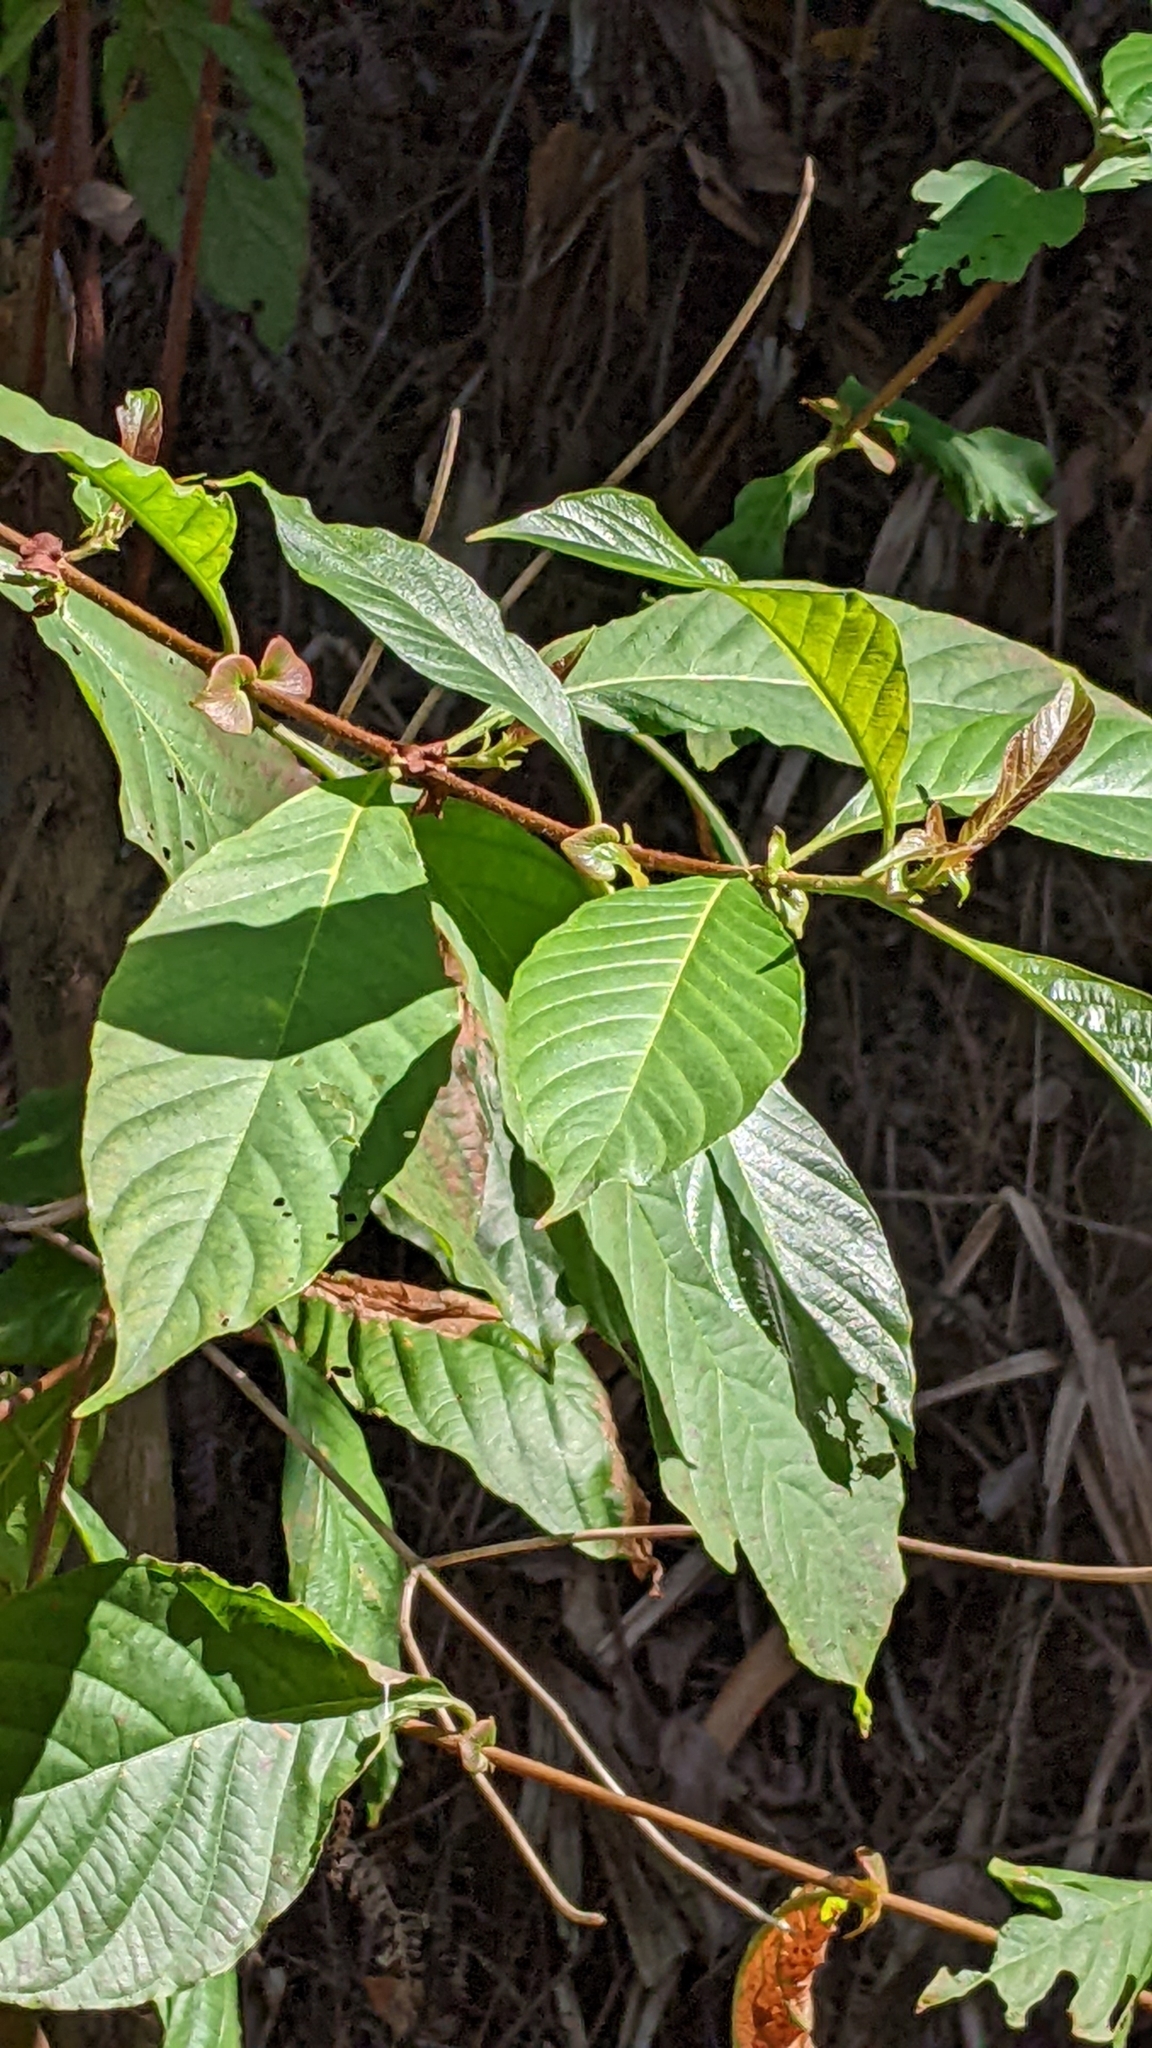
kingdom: Plantae
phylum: Tracheophyta
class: Magnoliopsida
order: Gentianales
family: Rubiaceae
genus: Wendlandia
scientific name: Wendlandia uvariifolia
